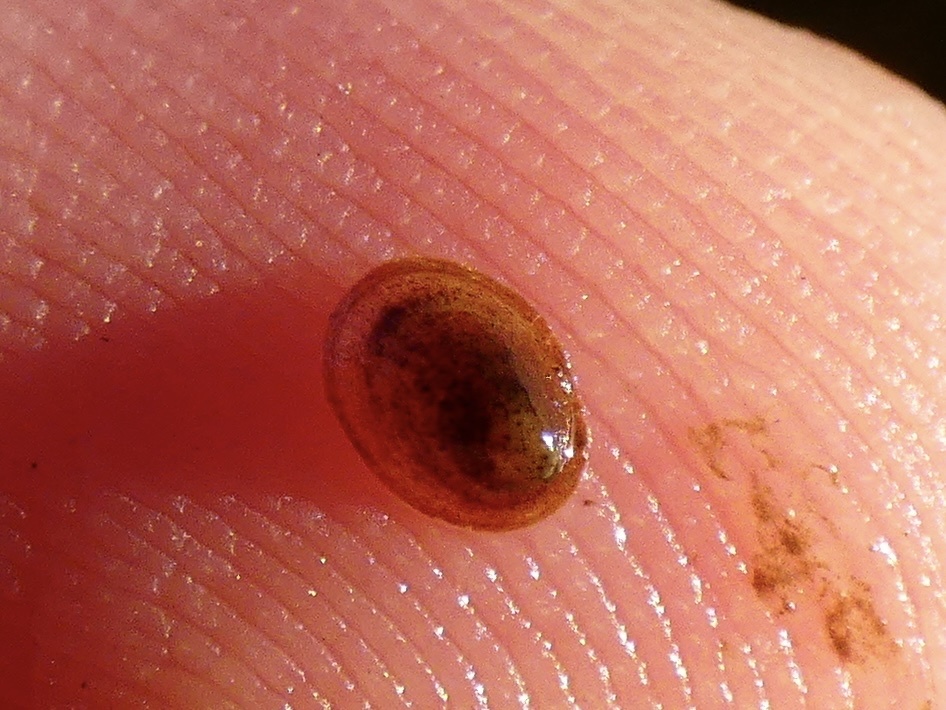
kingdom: Animalia
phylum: Mollusca
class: Gastropoda
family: Planorbidae
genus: Ancylus
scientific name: Ancylus fluviatilis
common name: River limpet
